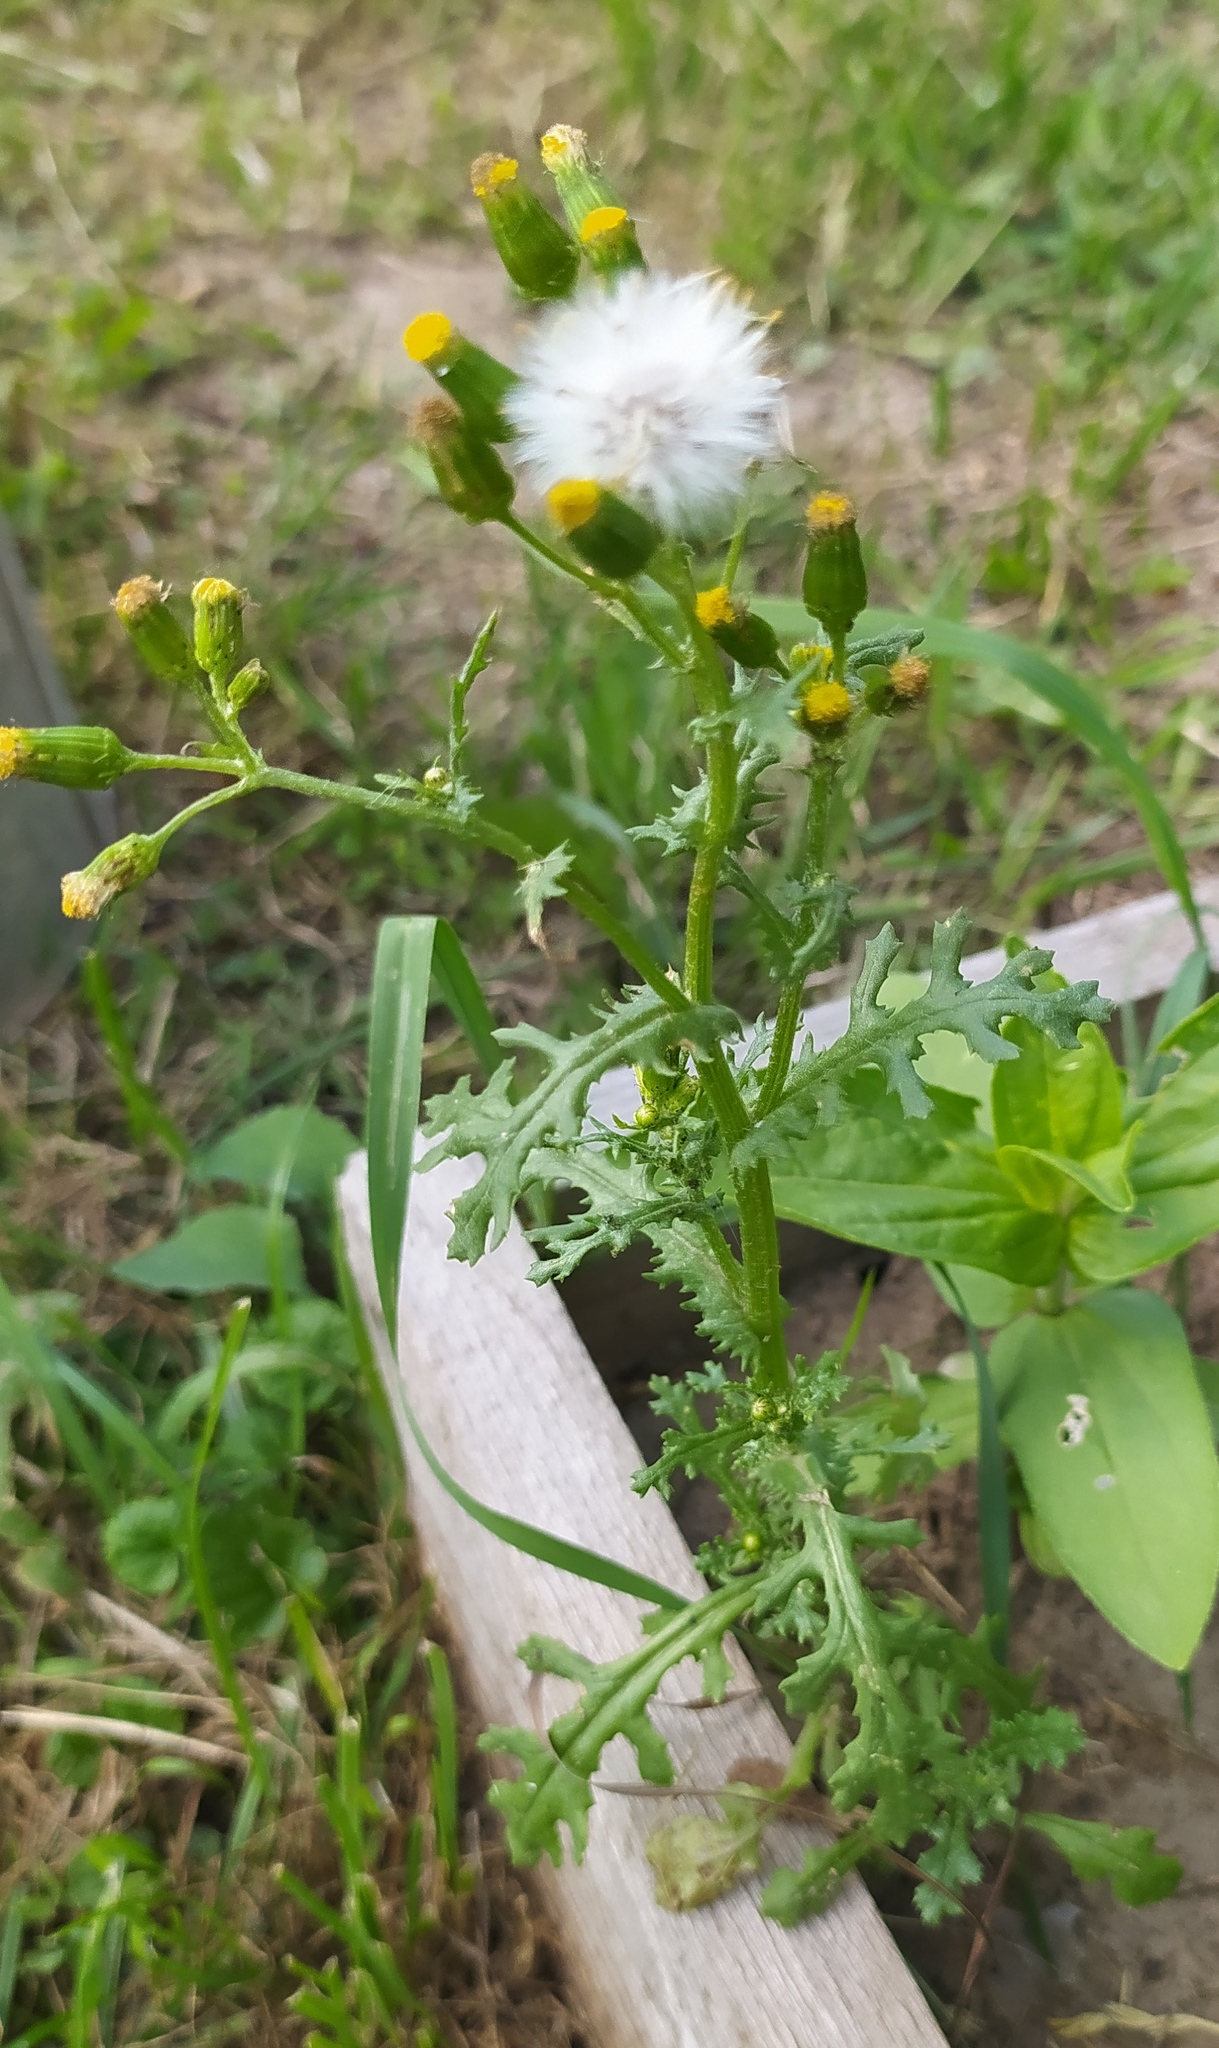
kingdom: Plantae
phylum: Tracheophyta
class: Magnoliopsida
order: Asterales
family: Asteraceae
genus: Senecio
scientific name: Senecio vulgaris
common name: Old-man-in-the-spring
